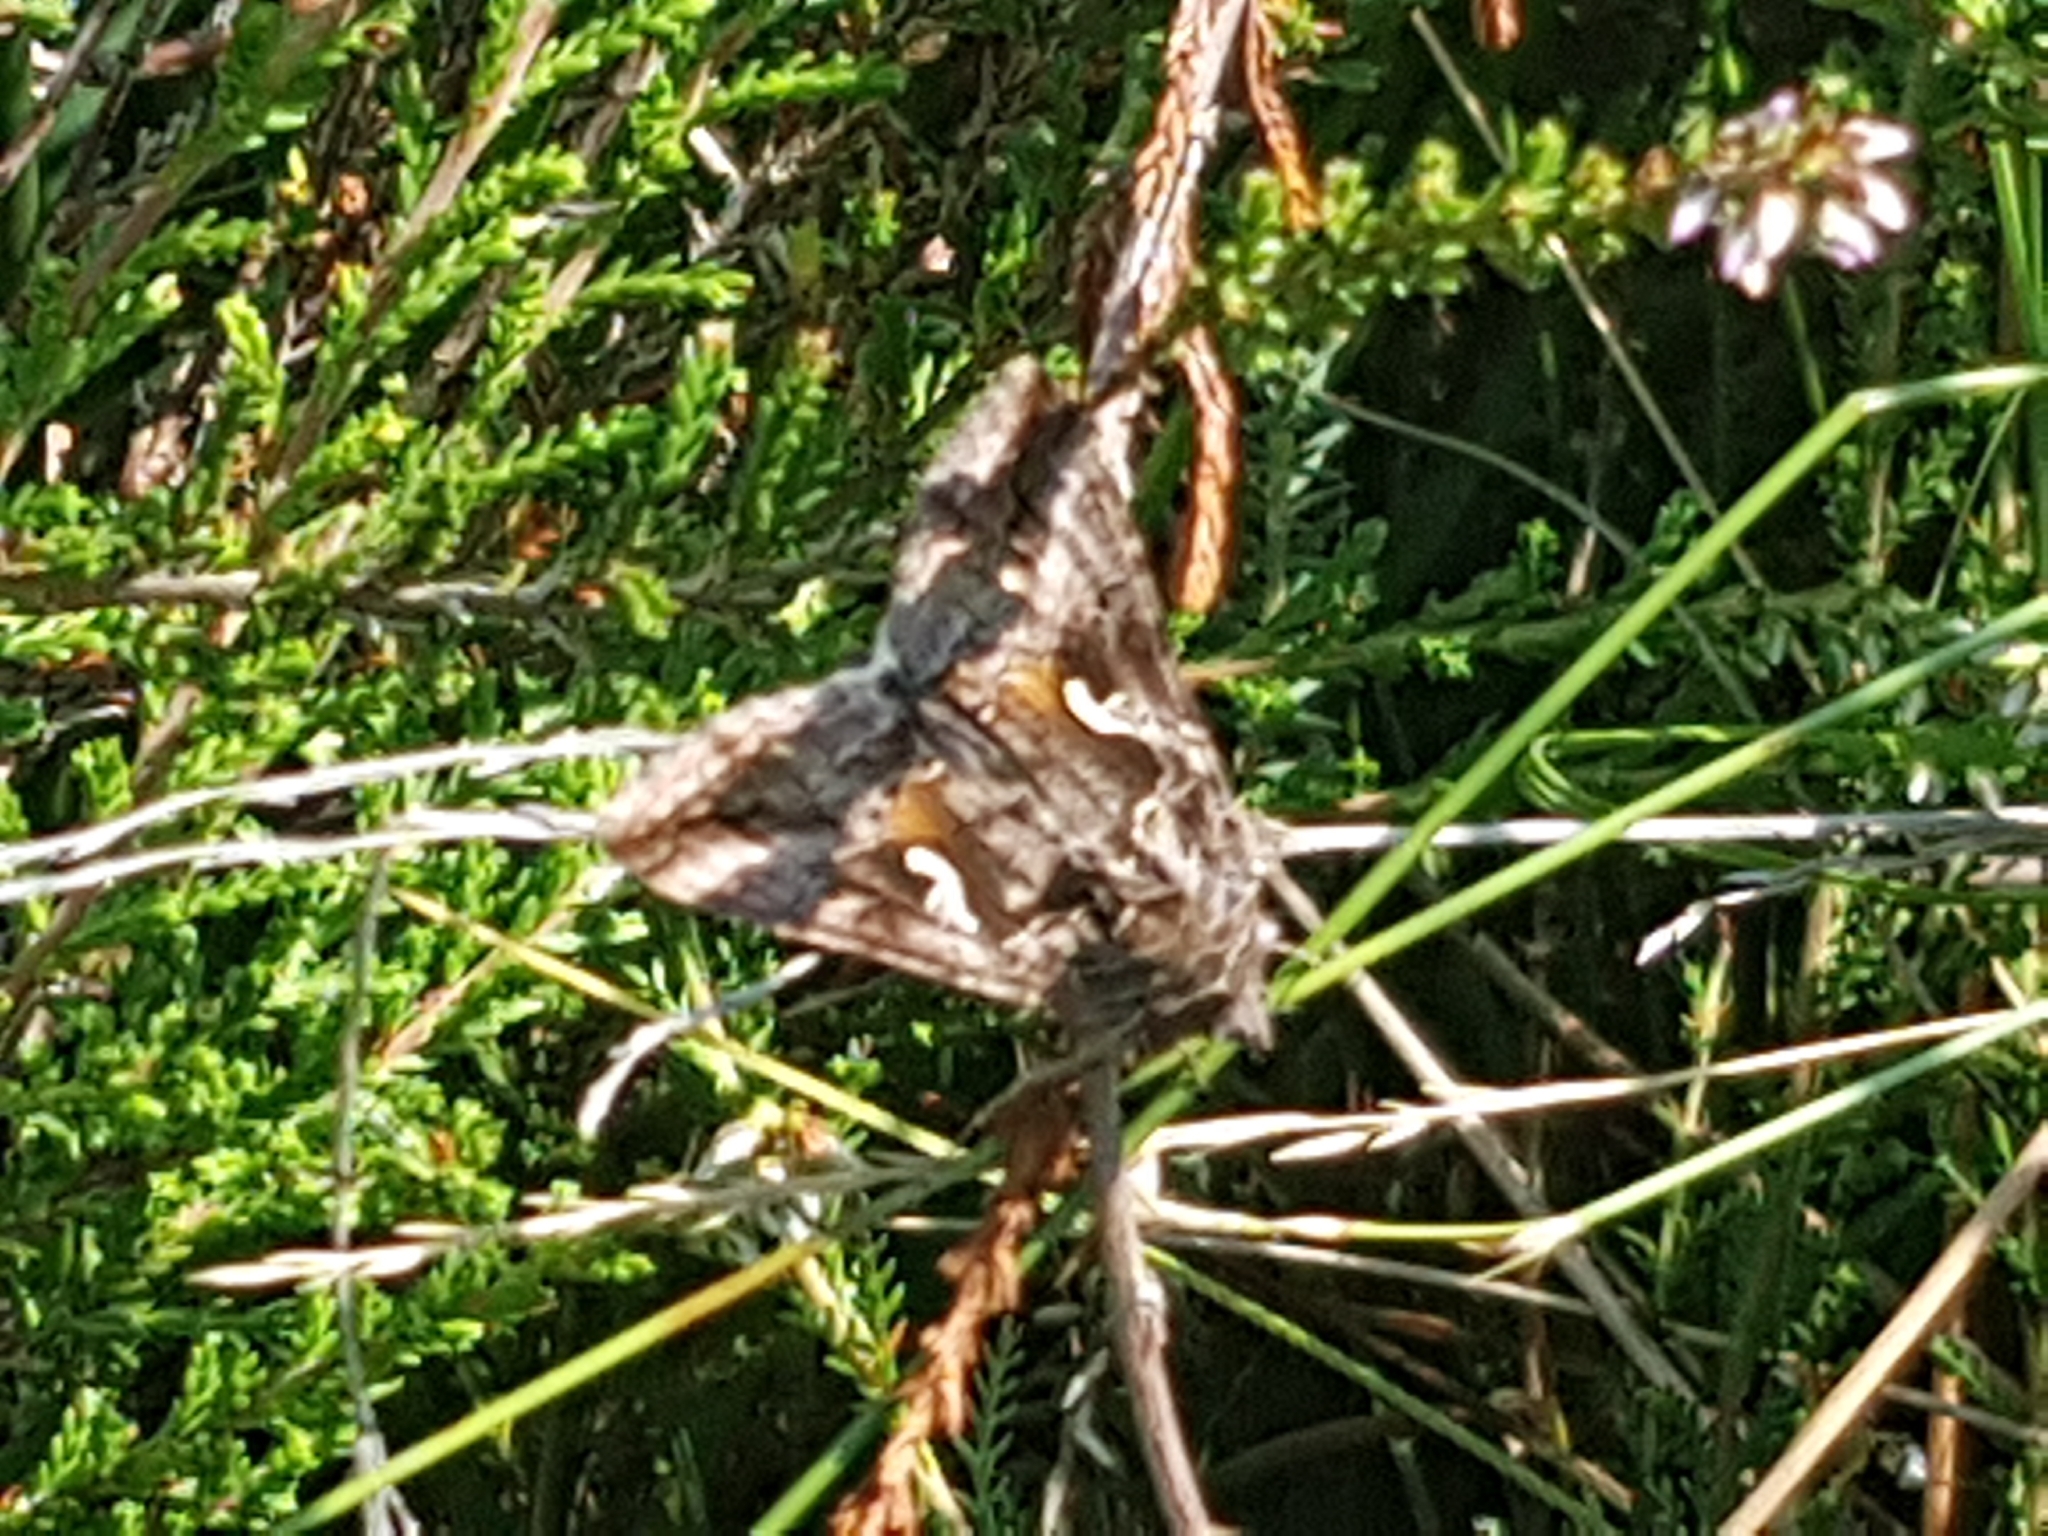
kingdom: Animalia
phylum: Arthropoda
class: Insecta
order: Lepidoptera
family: Noctuidae
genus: Autographa
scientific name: Autographa gamma
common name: Silver y
